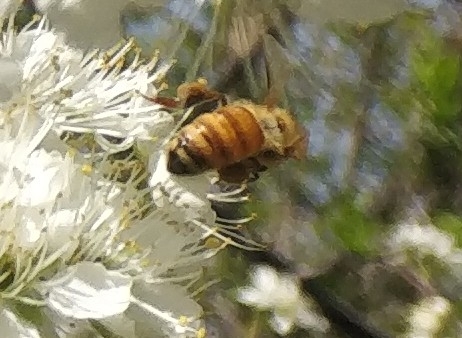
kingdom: Animalia
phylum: Arthropoda
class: Insecta
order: Hymenoptera
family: Apidae
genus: Apis
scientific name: Apis mellifera
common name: Honey bee
